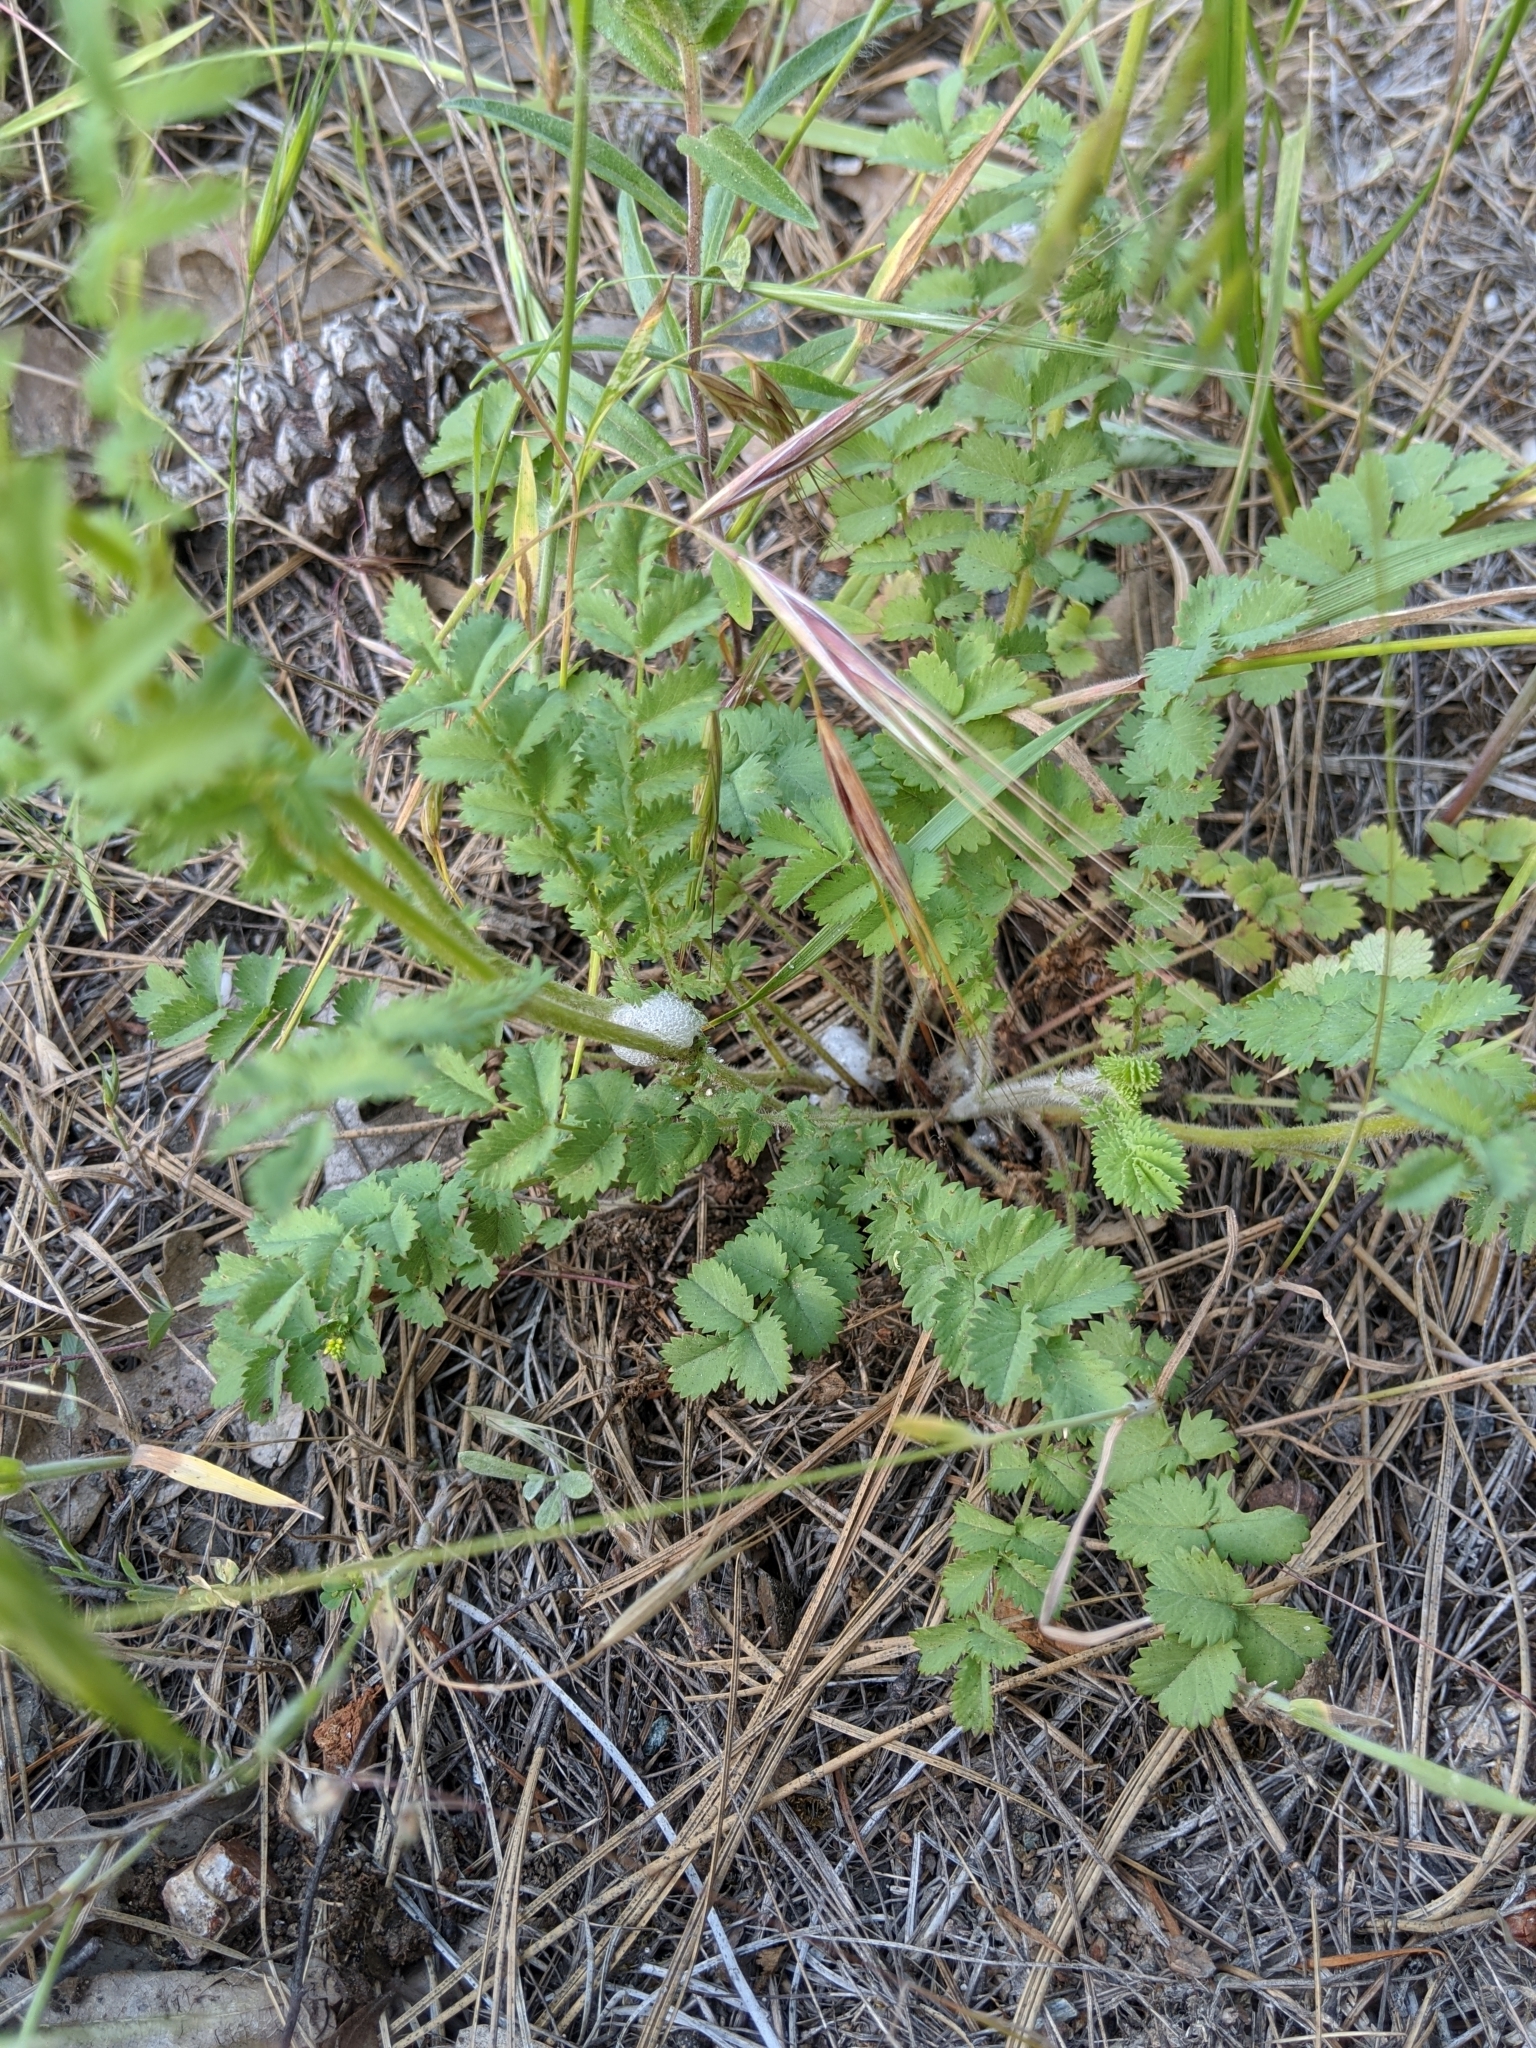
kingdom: Plantae
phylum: Tracheophyta
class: Magnoliopsida
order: Rosales
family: Rosaceae
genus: Poterium
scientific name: Poterium sanguisorba
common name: Salad burnet
